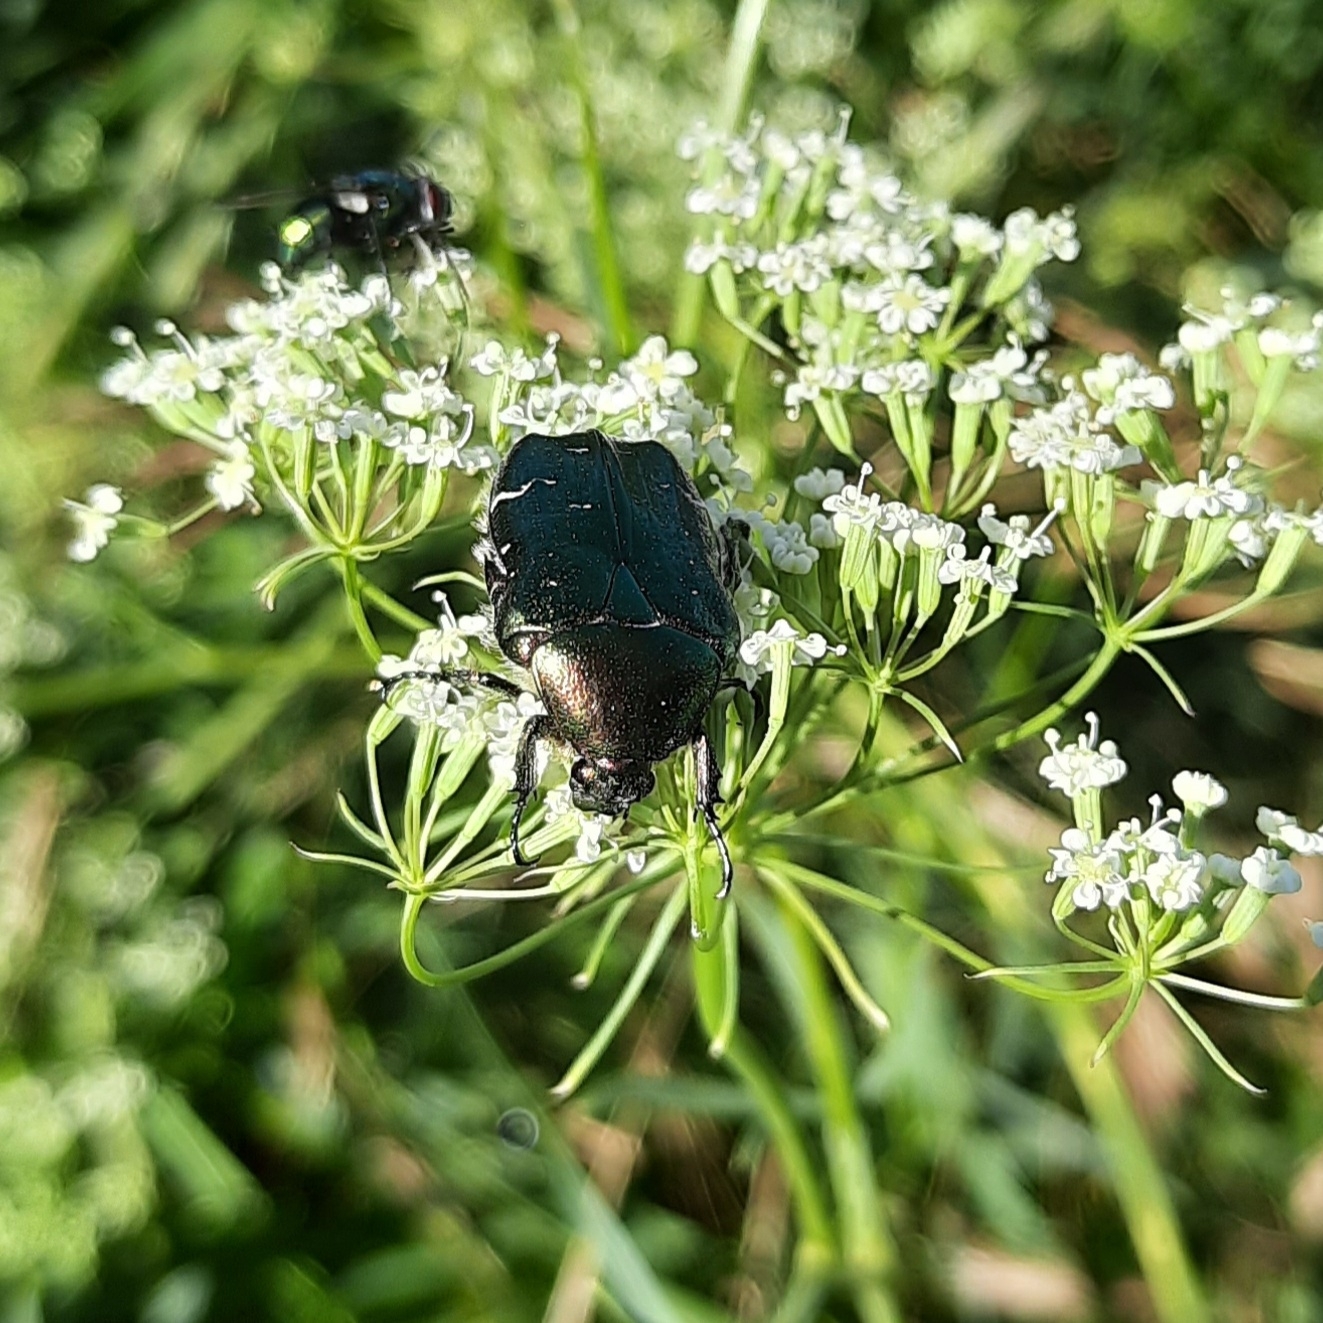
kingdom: Animalia
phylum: Arthropoda
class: Insecta
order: Coleoptera
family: Scarabaeidae
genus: Cetonia
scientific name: Cetonia aurata
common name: Rose chafer
